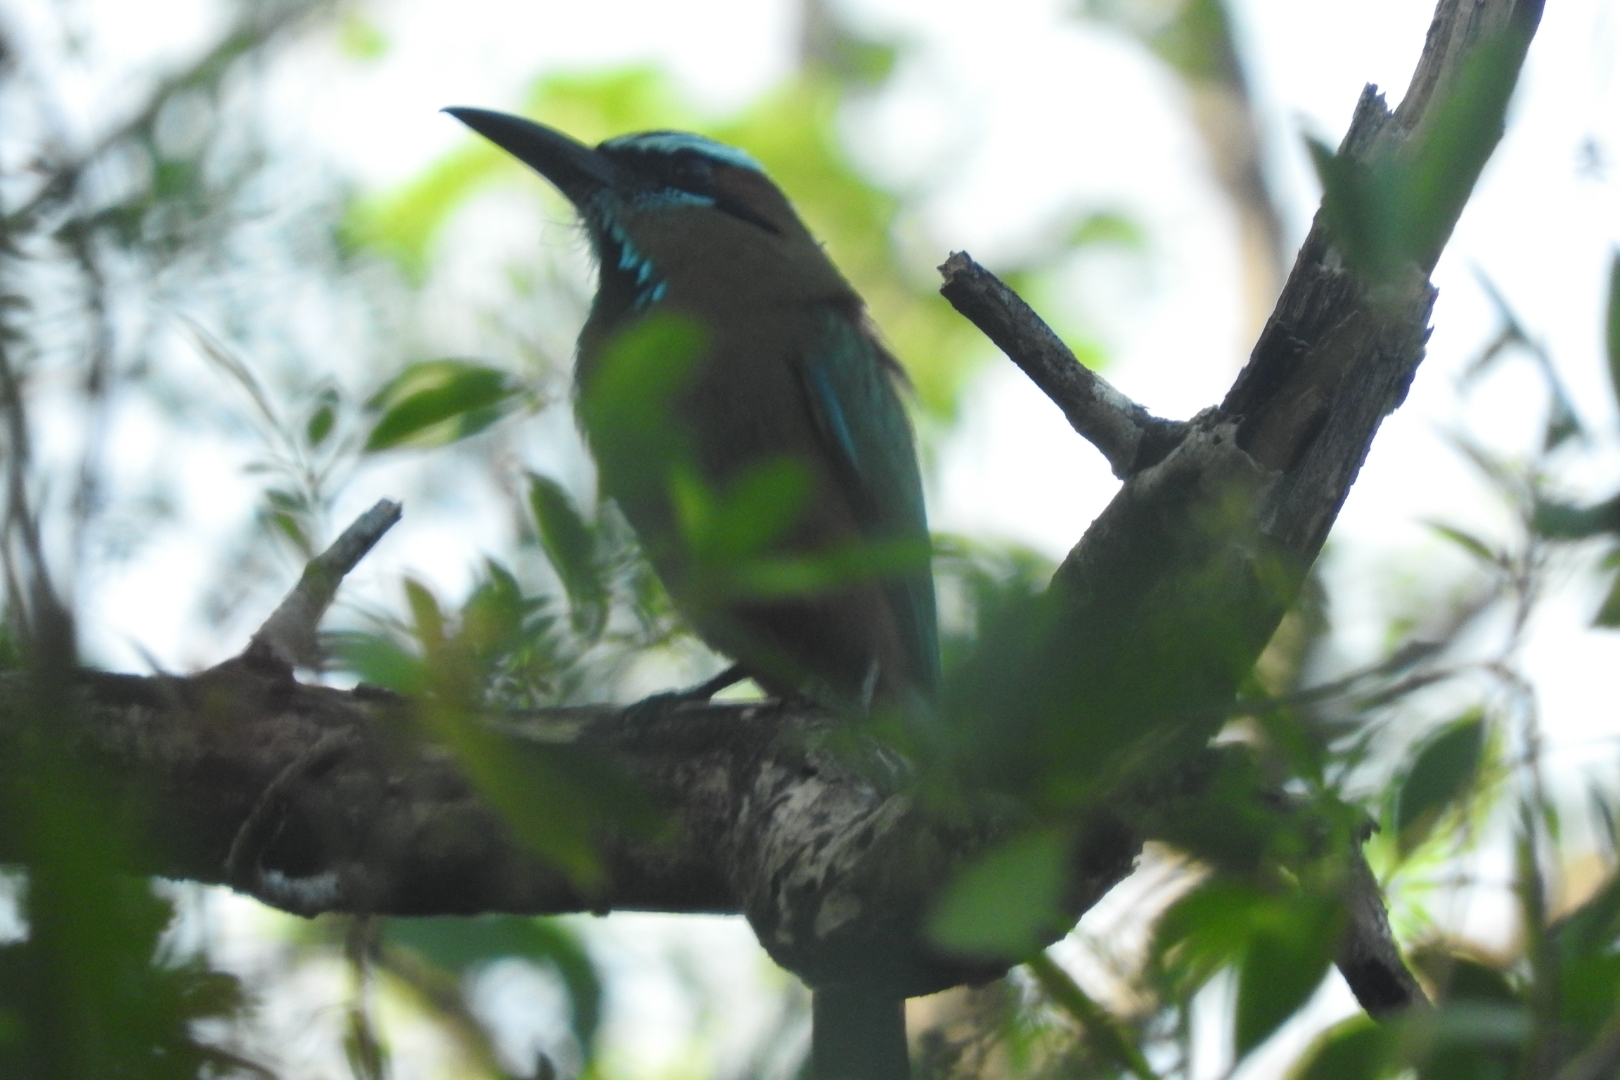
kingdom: Animalia
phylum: Chordata
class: Aves
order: Coraciiformes
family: Momotidae
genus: Eumomota
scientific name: Eumomota superciliosa
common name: Turquoise-browed motmot
